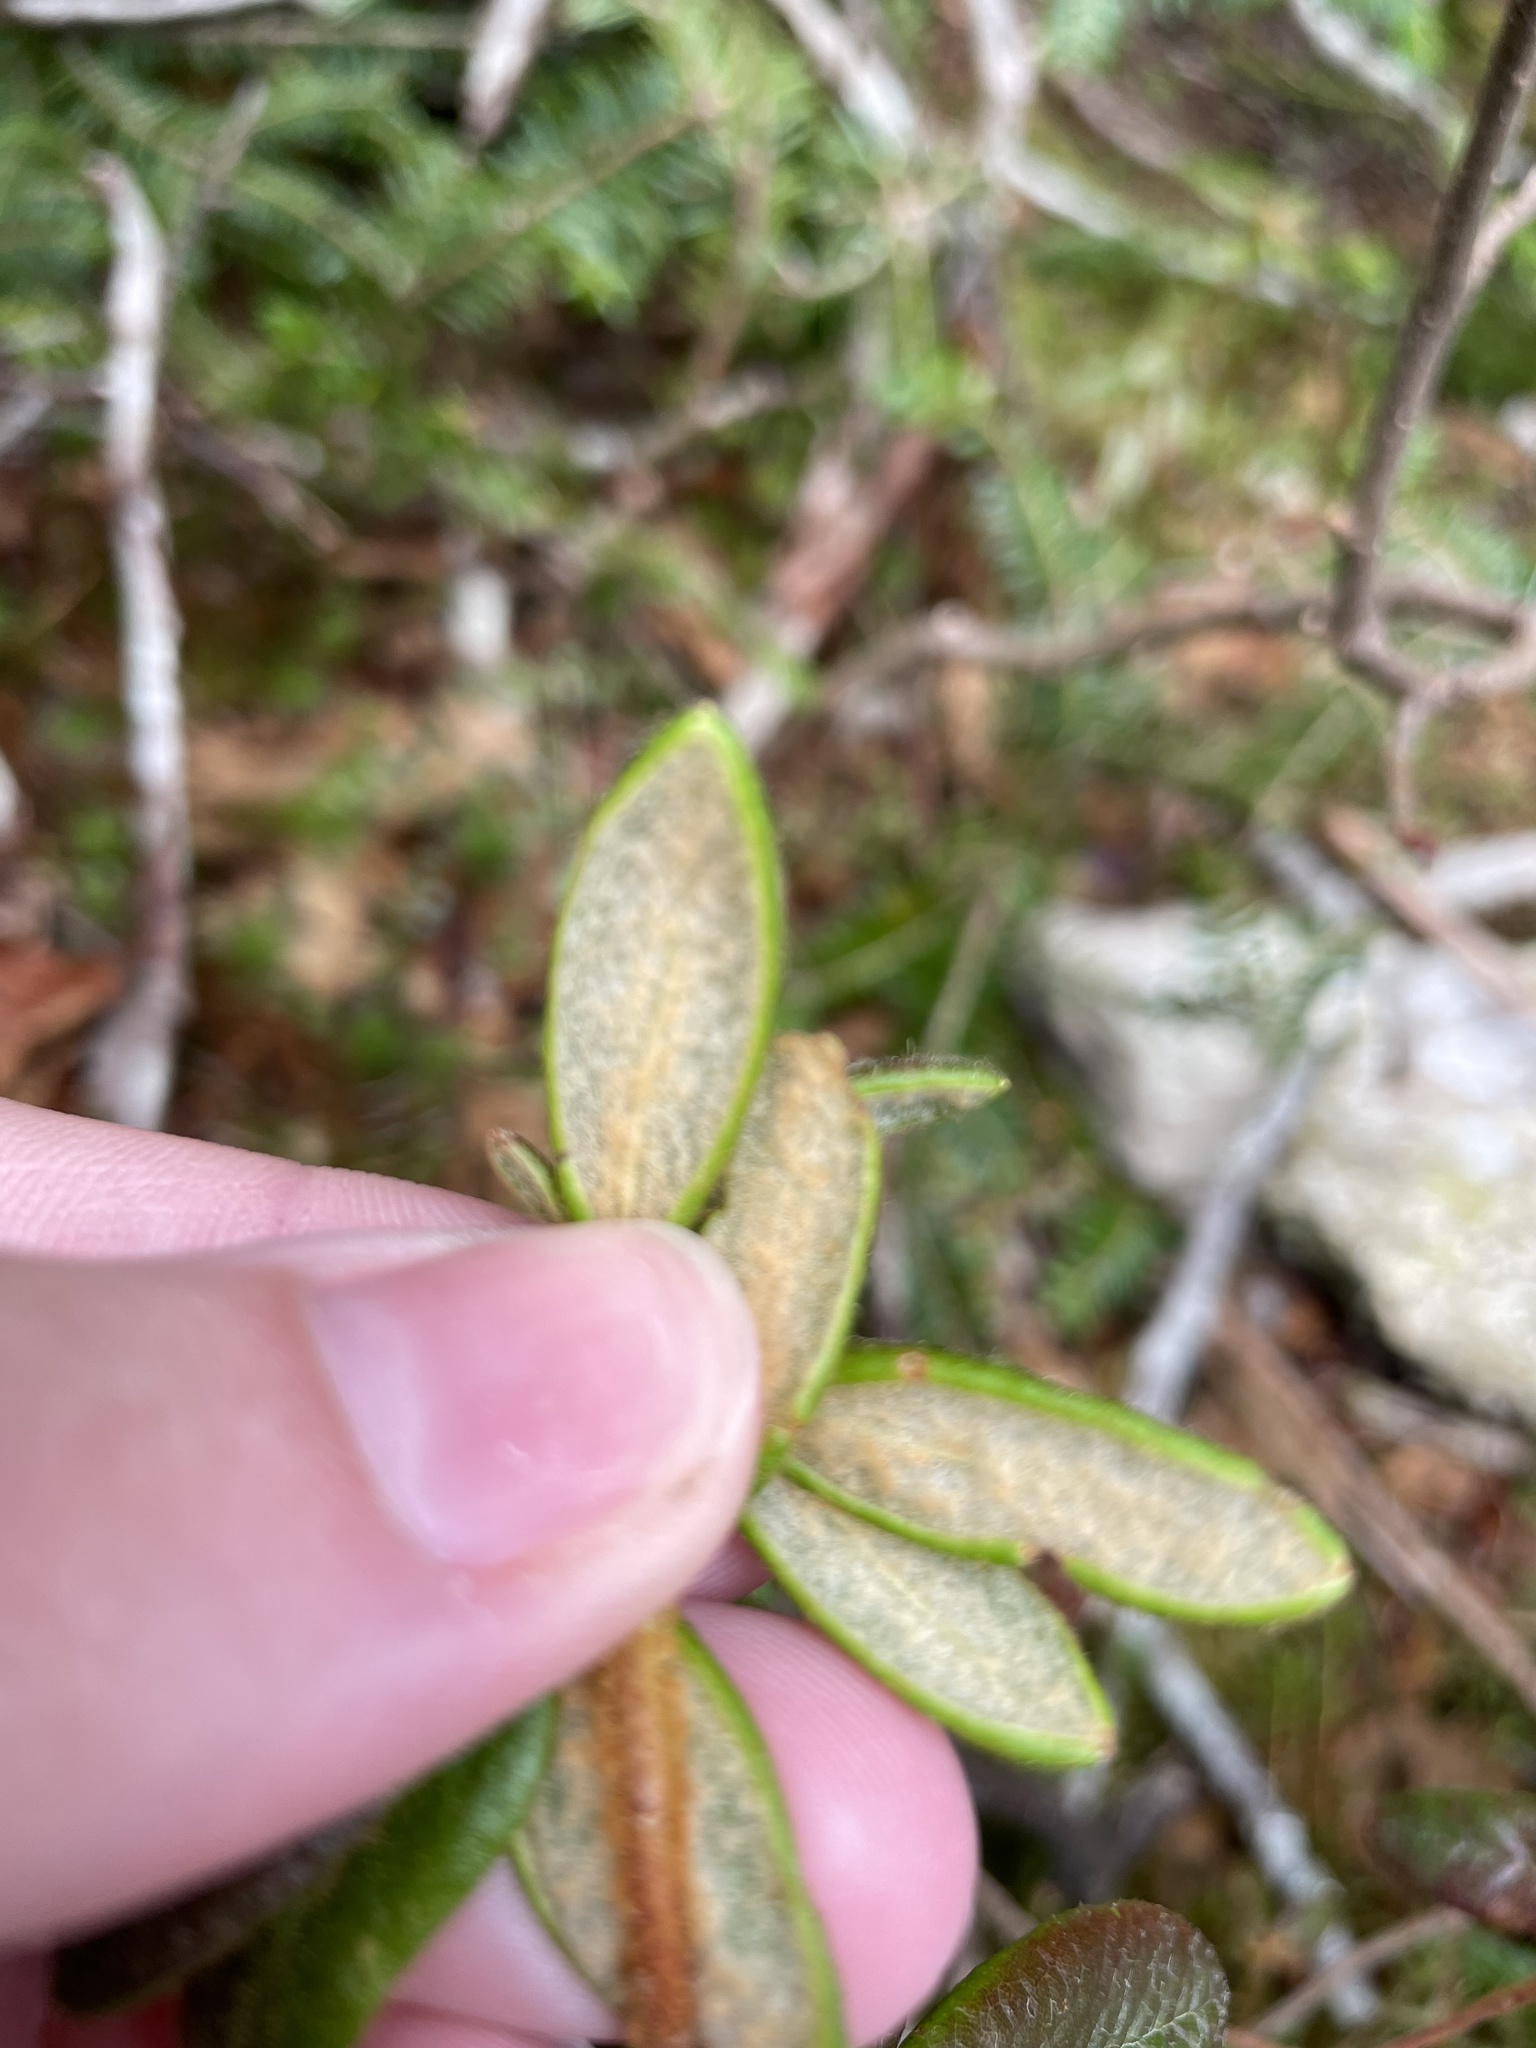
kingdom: Plantae
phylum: Tracheophyta
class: Magnoliopsida
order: Ericales
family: Ericaceae
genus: Rhododendron
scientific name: Rhododendron groenlandicum
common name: Bog labrador tea
